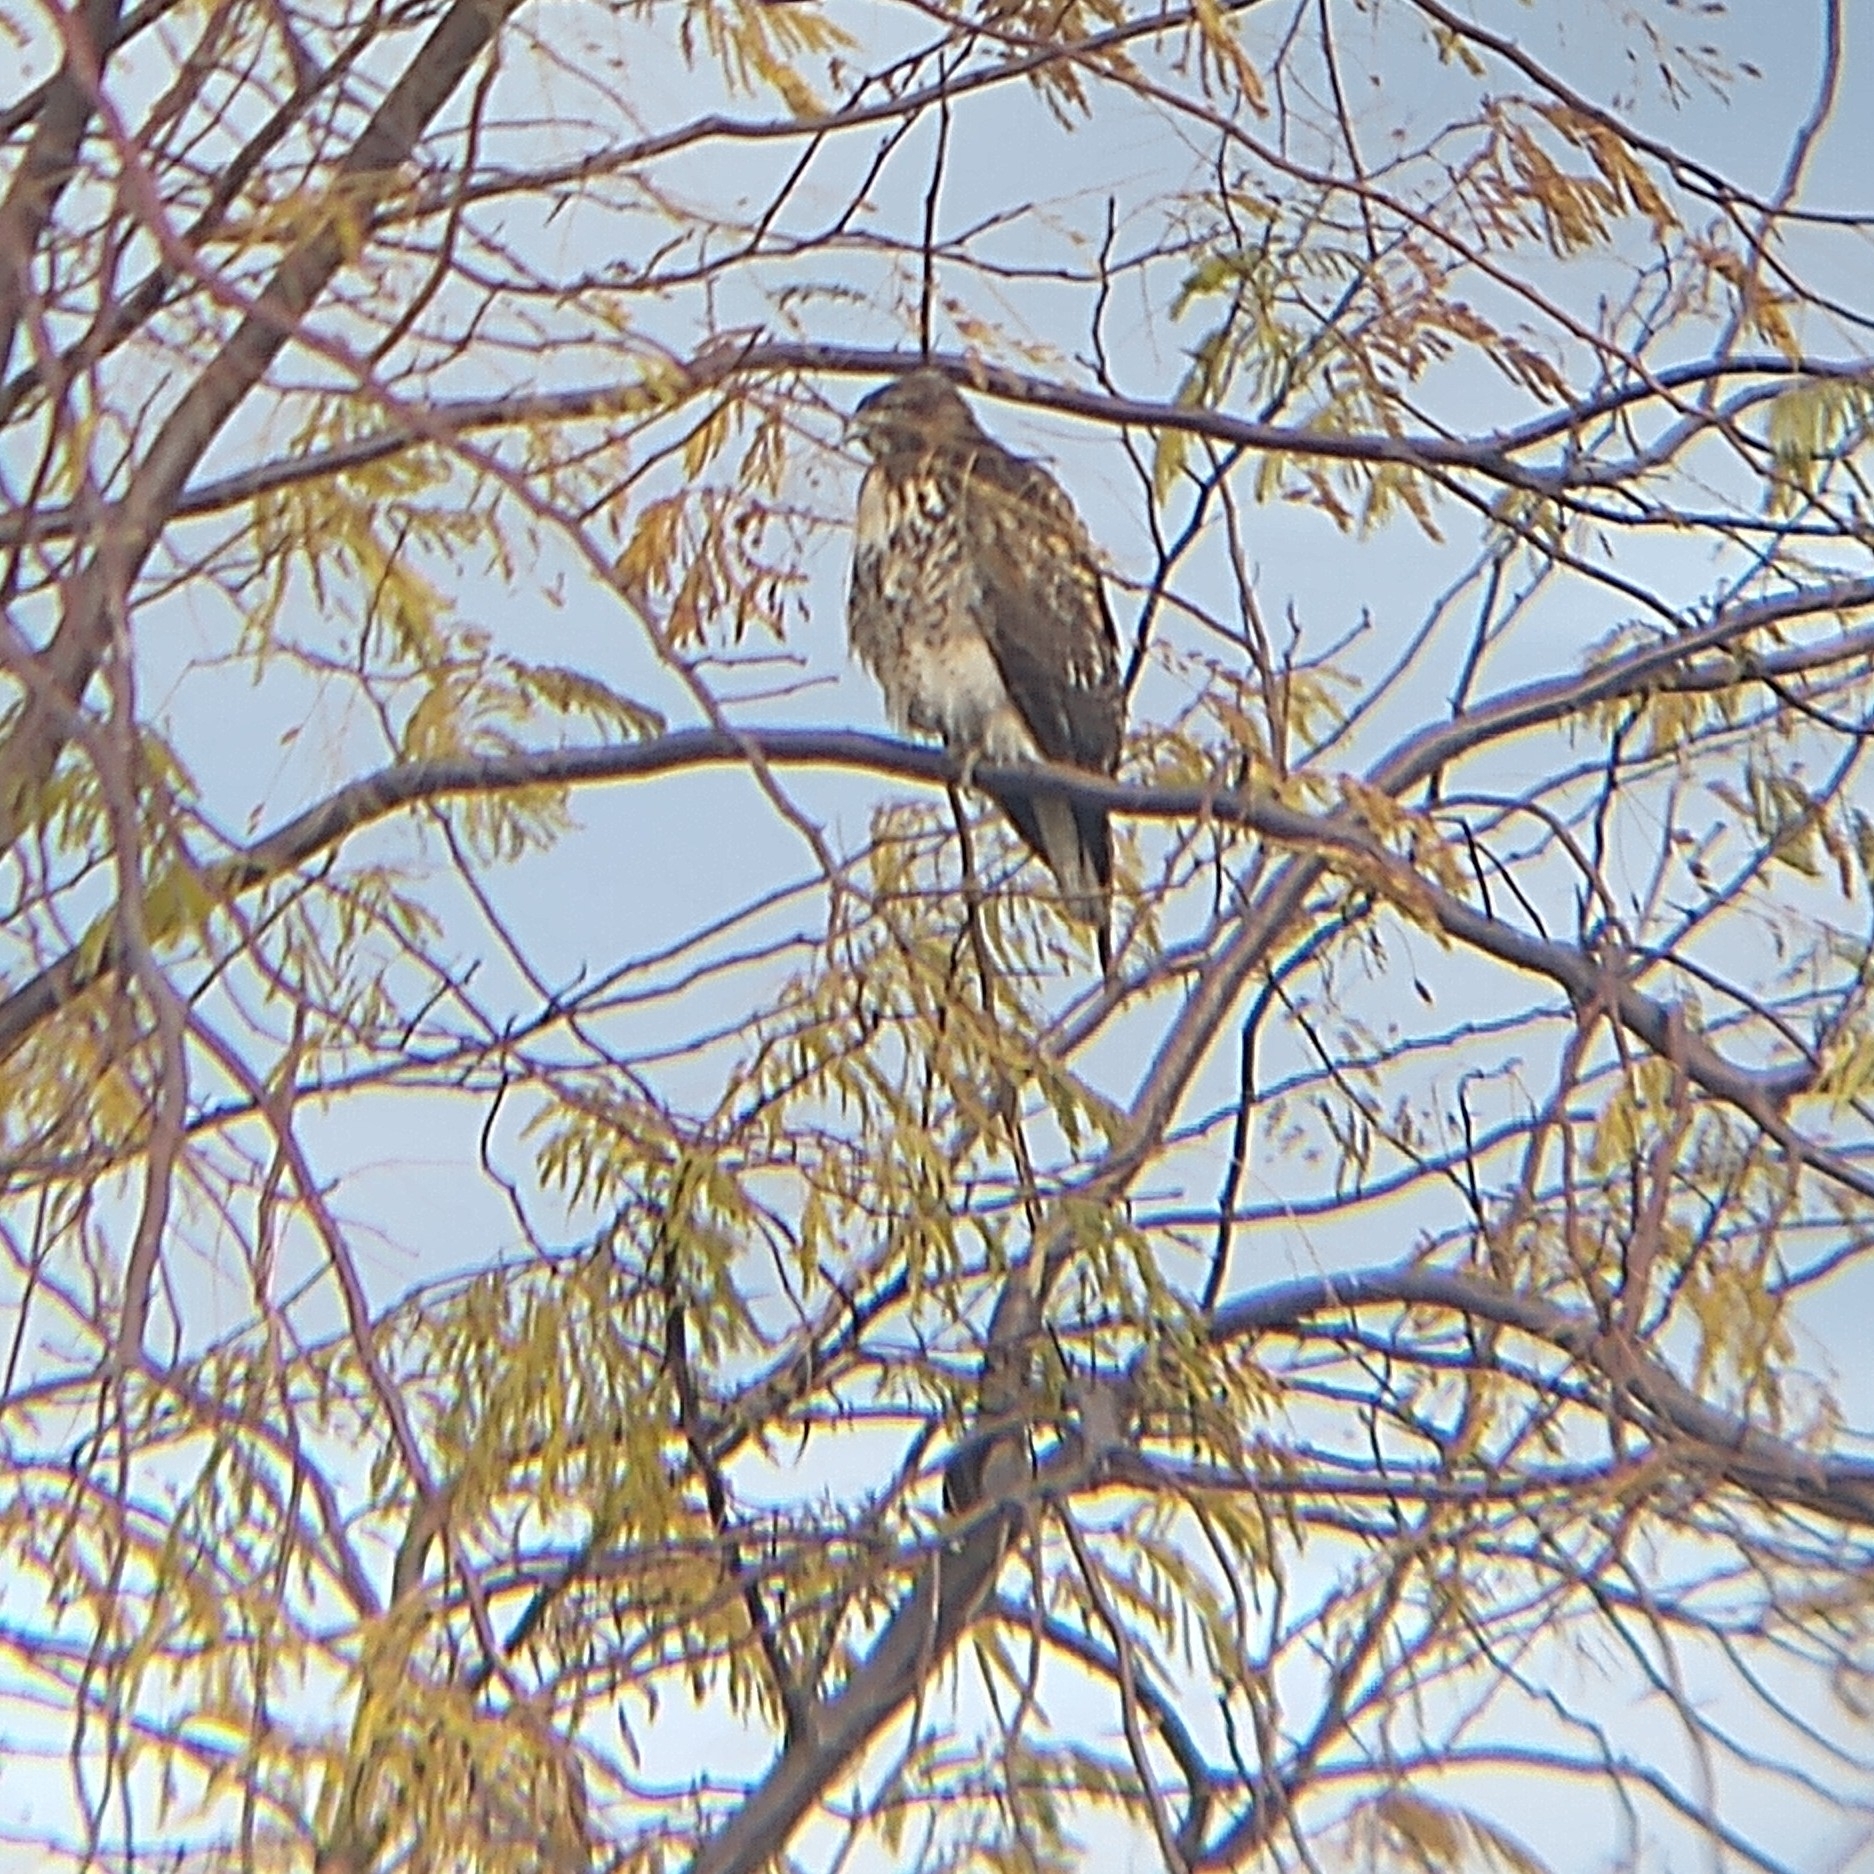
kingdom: Animalia
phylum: Chordata
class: Aves
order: Accipitriformes
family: Accipitridae
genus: Buteo
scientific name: Buteo jamaicensis
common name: Red-tailed hawk
